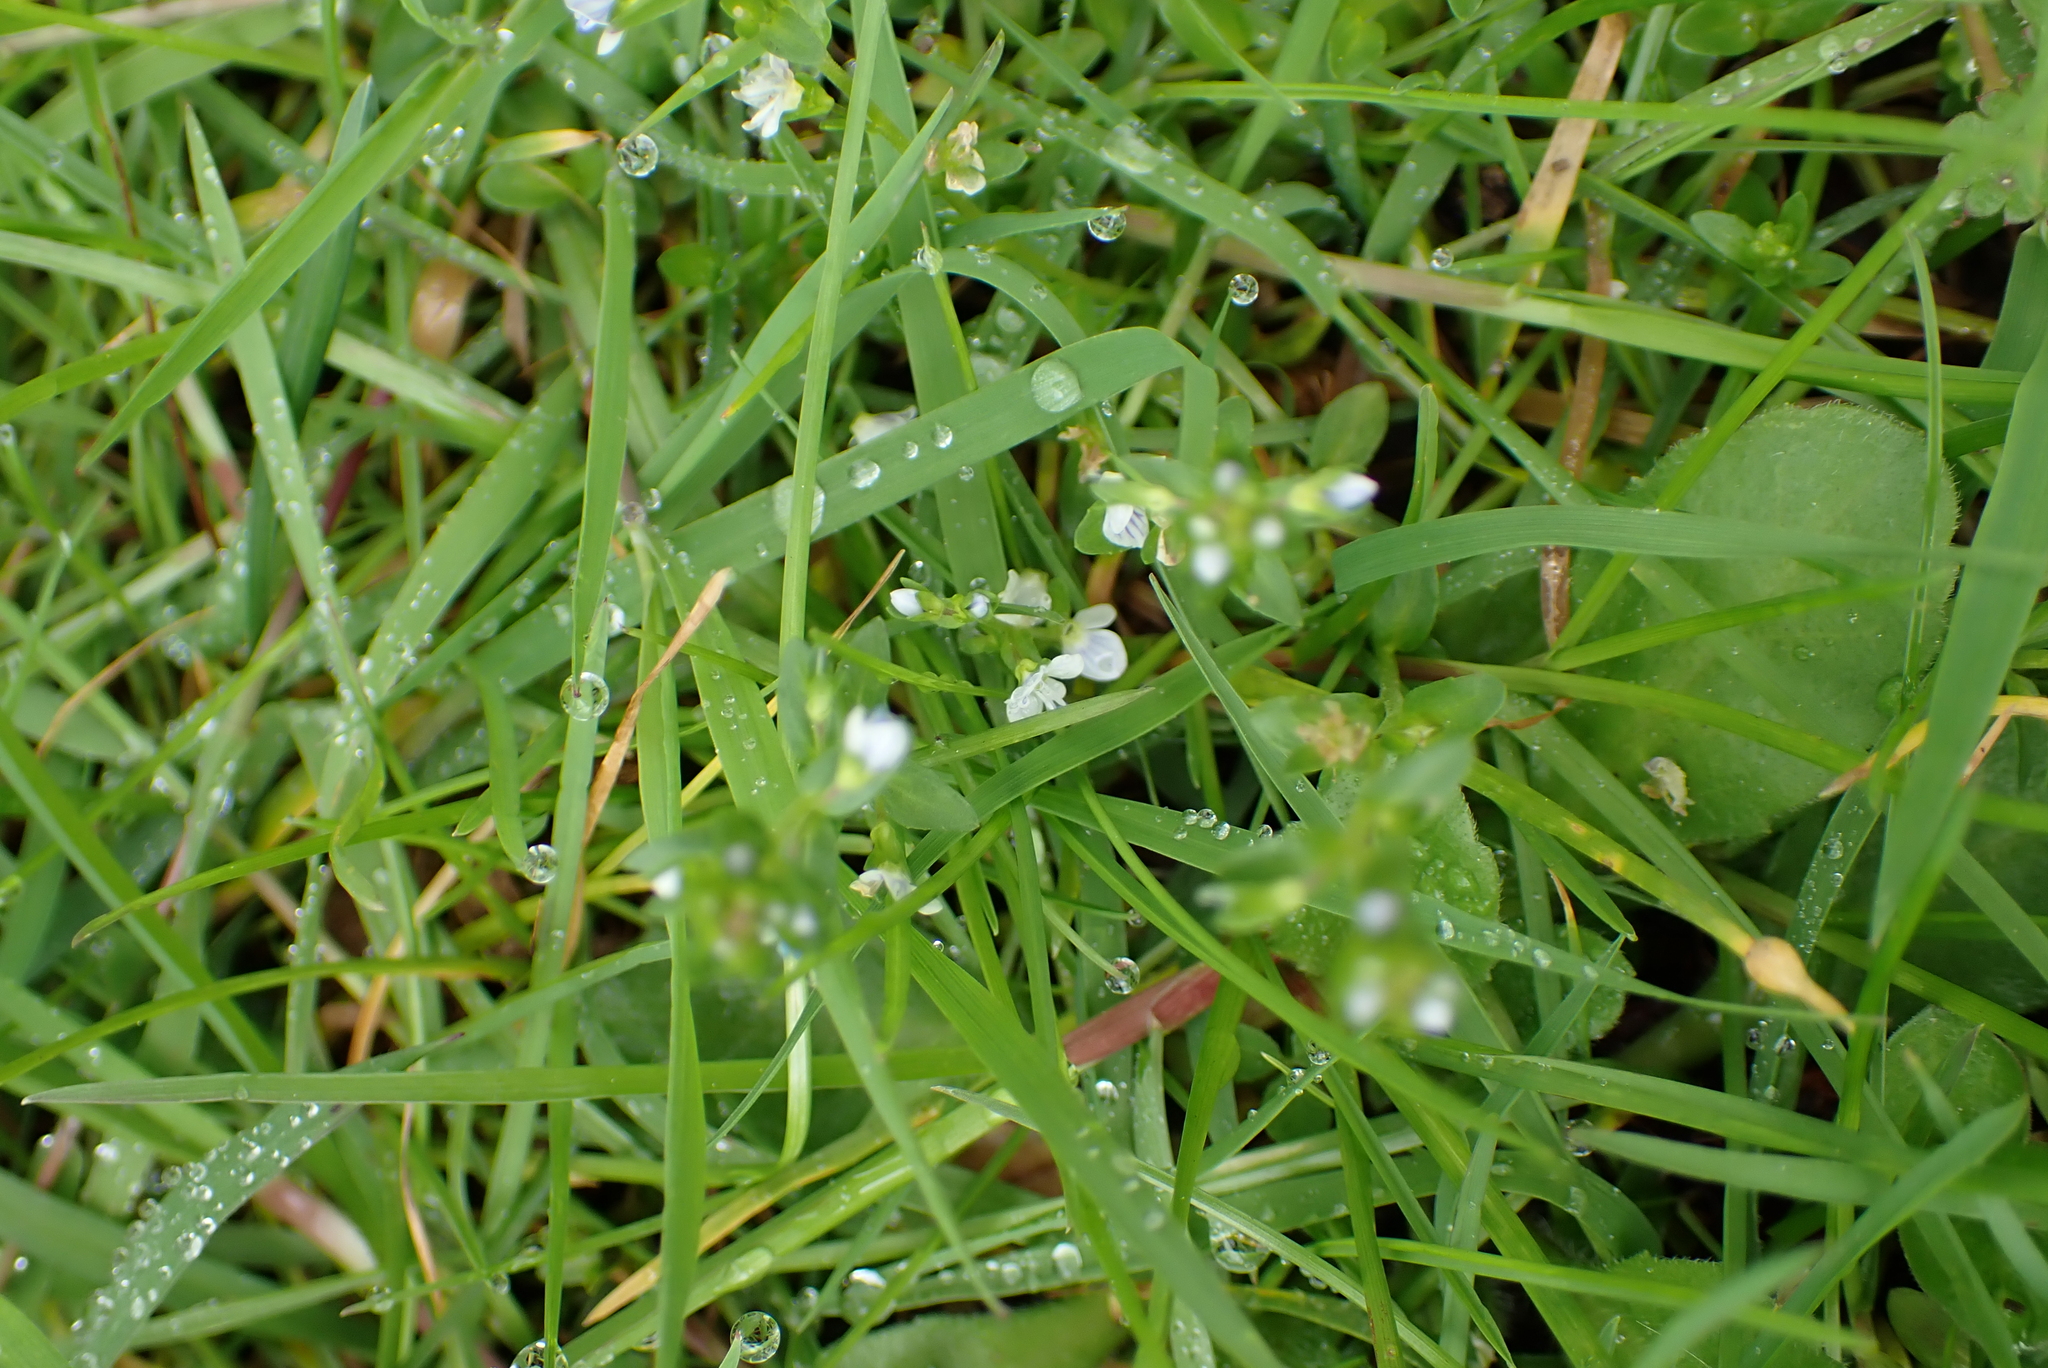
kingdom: Plantae
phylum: Tracheophyta
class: Magnoliopsida
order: Lamiales
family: Plantaginaceae
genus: Veronica
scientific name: Veronica serpyllifolia
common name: Thyme-leaved speedwell
